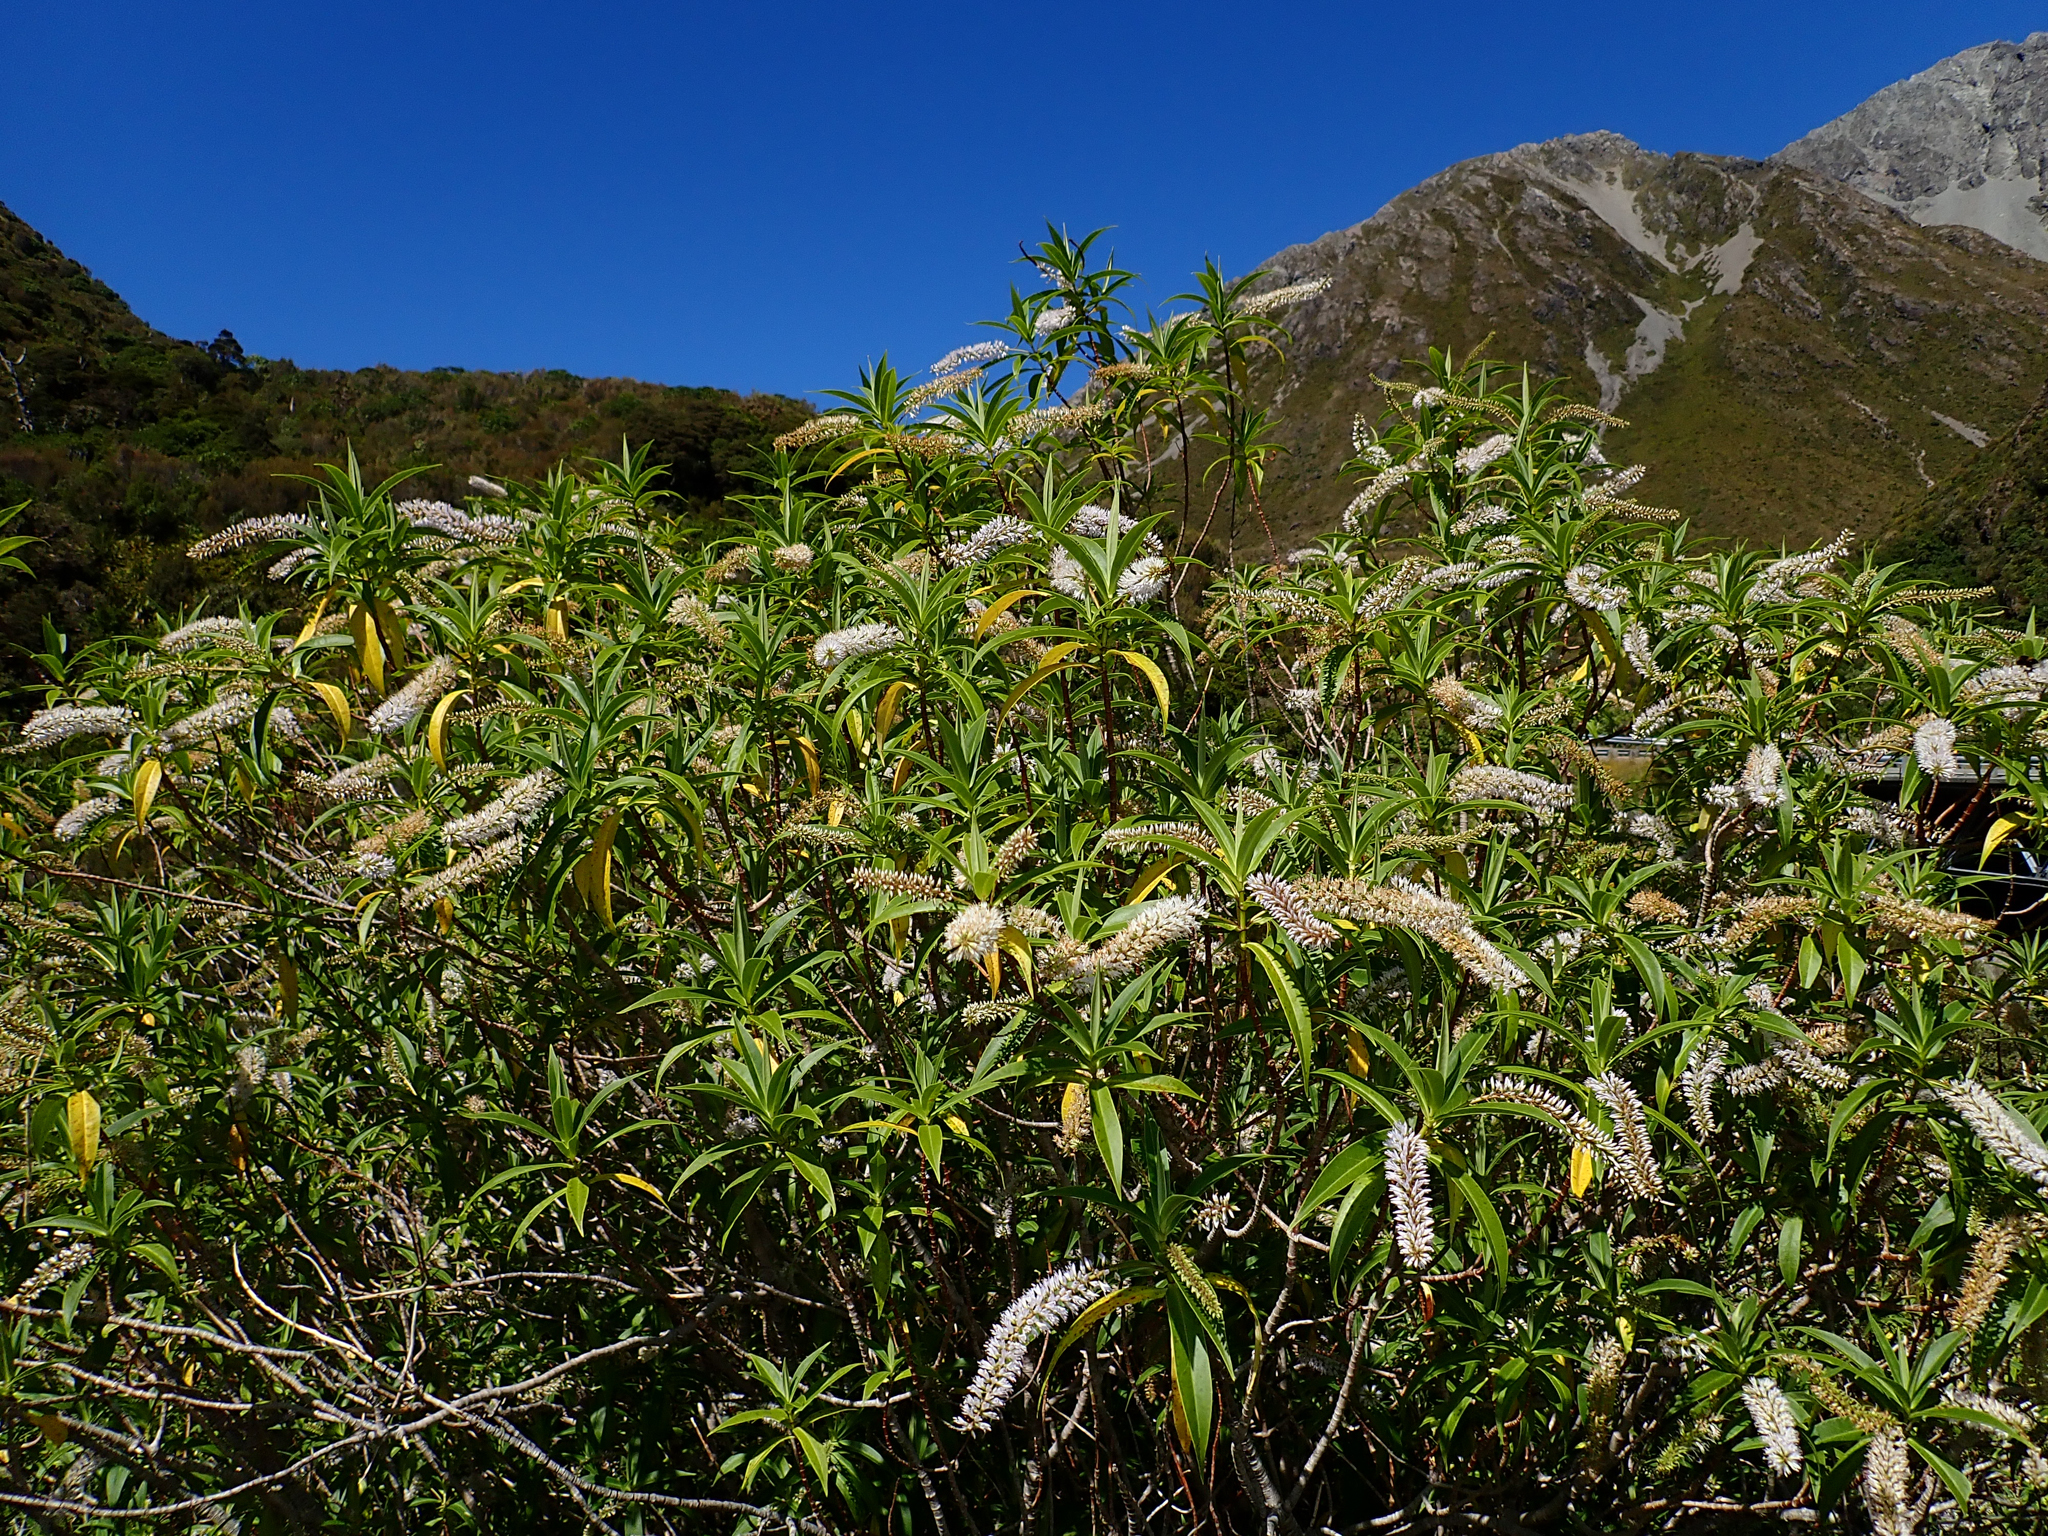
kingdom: Plantae
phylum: Tracheophyta
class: Magnoliopsida
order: Lamiales
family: Plantaginaceae
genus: Veronica
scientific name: Veronica salicifolia
